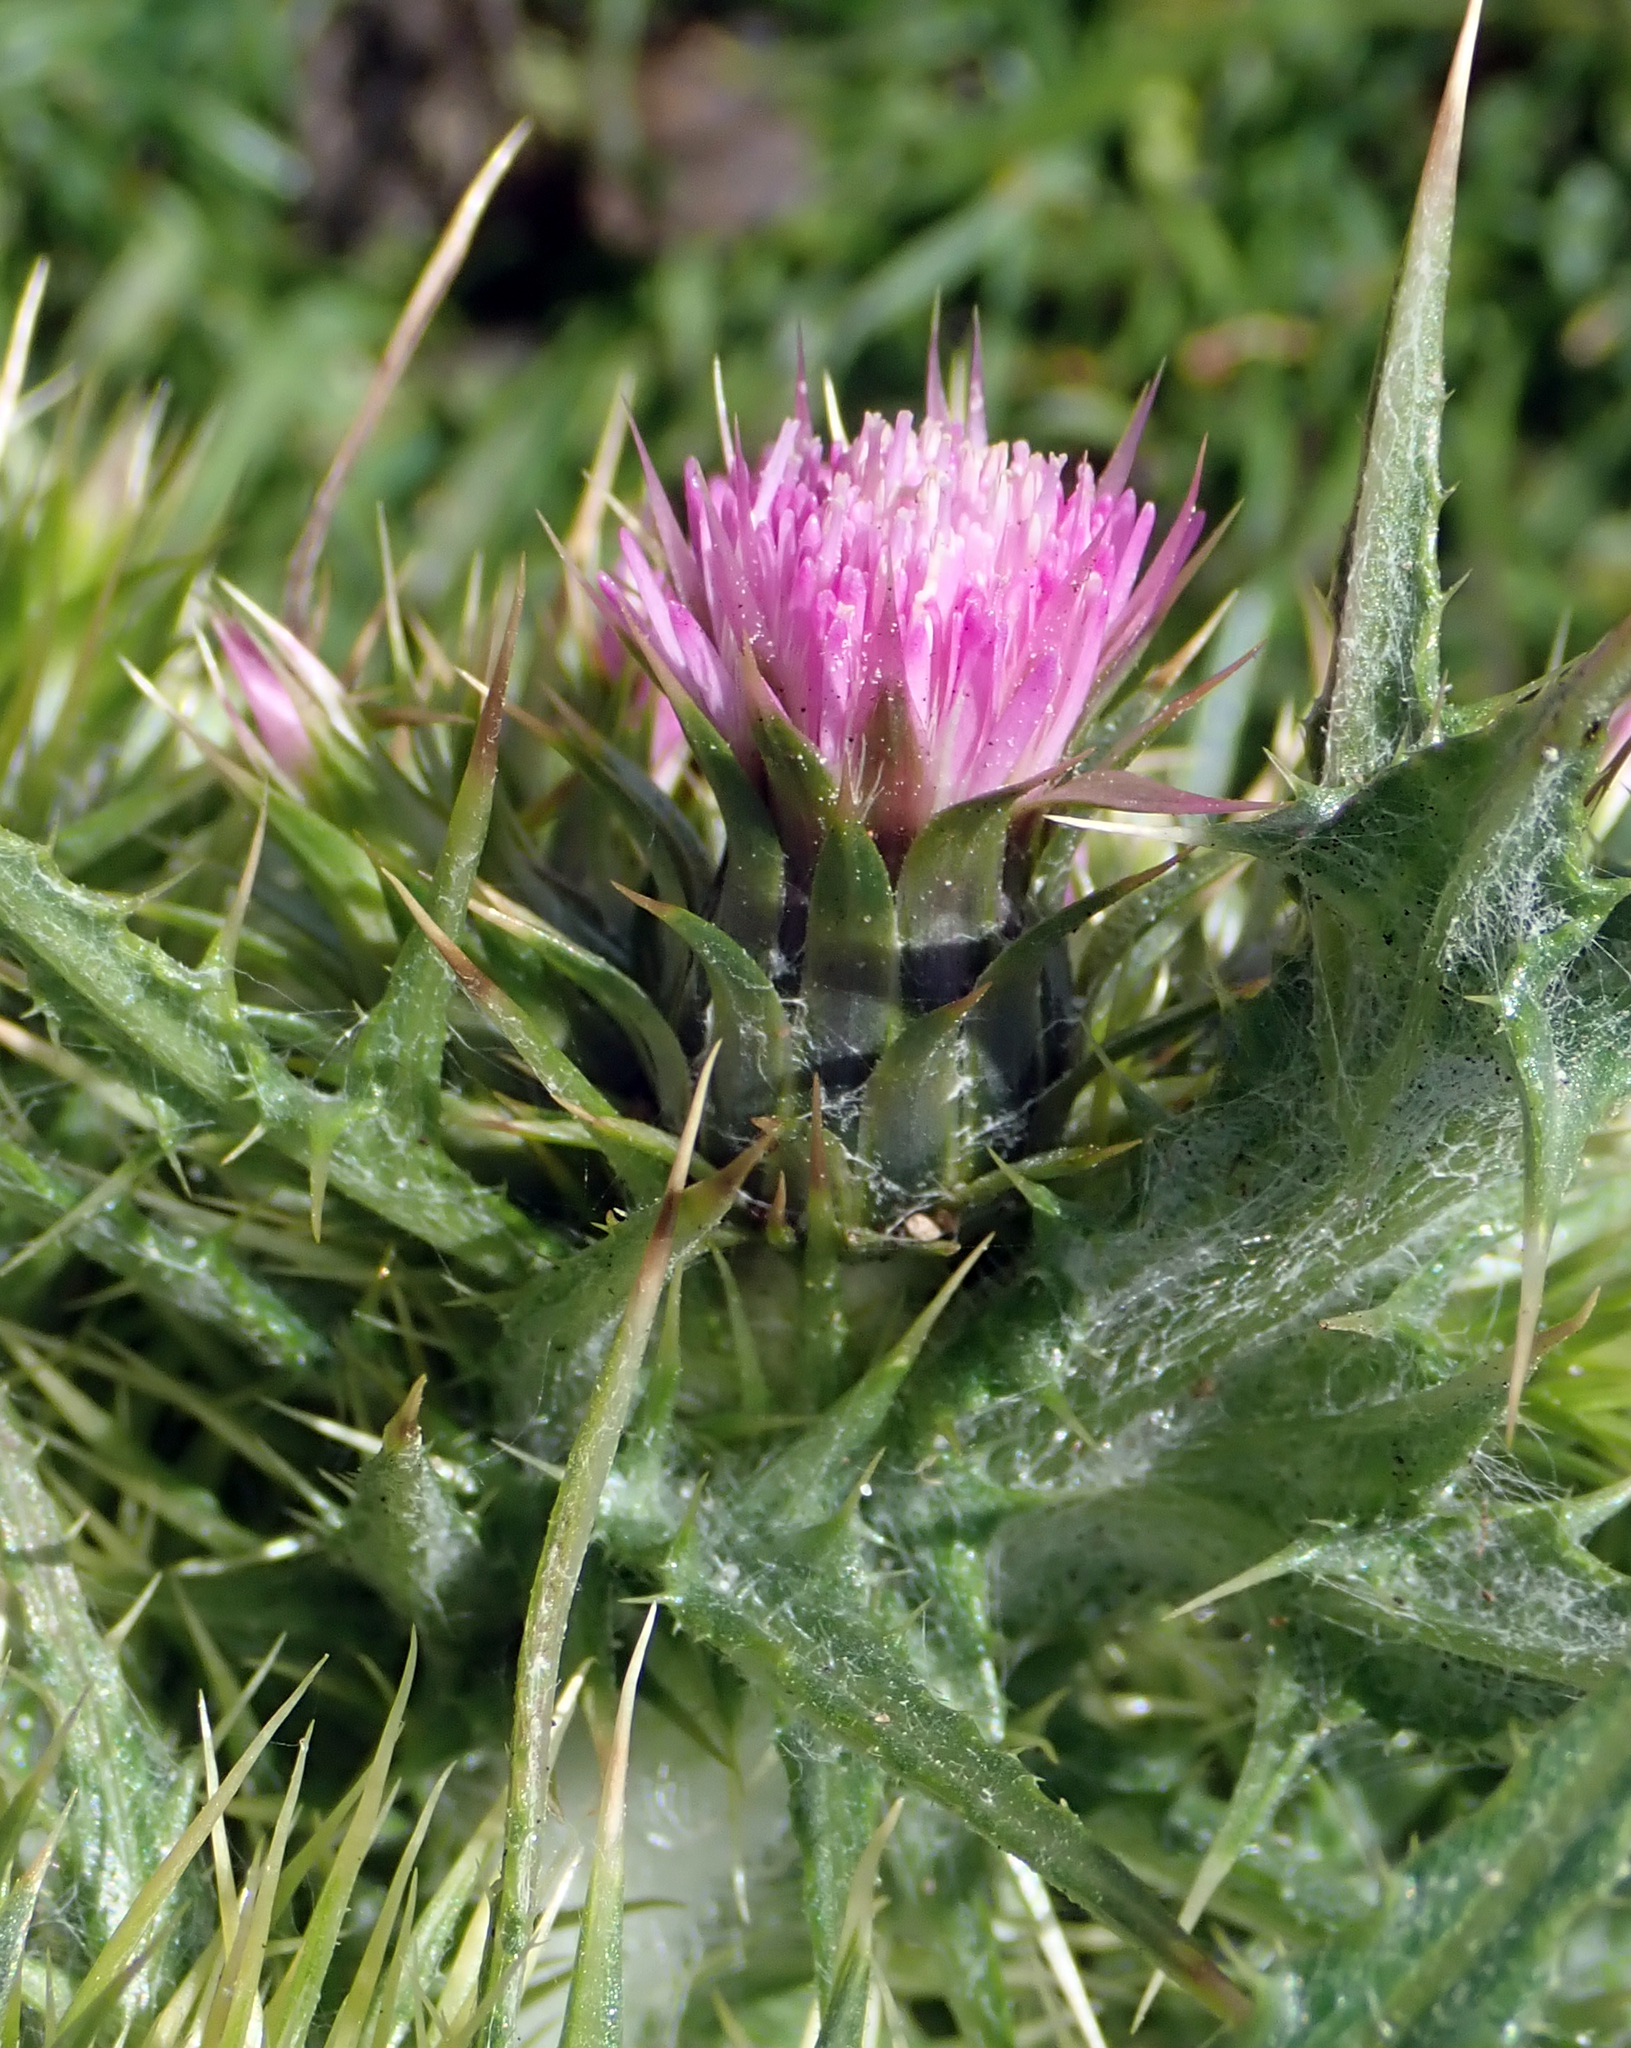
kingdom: Plantae
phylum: Tracheophyta
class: Magnoliopsida
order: Asterales
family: Asteraceae
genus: Carduus
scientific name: Carduus tenuiflorus
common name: Slender thistle
